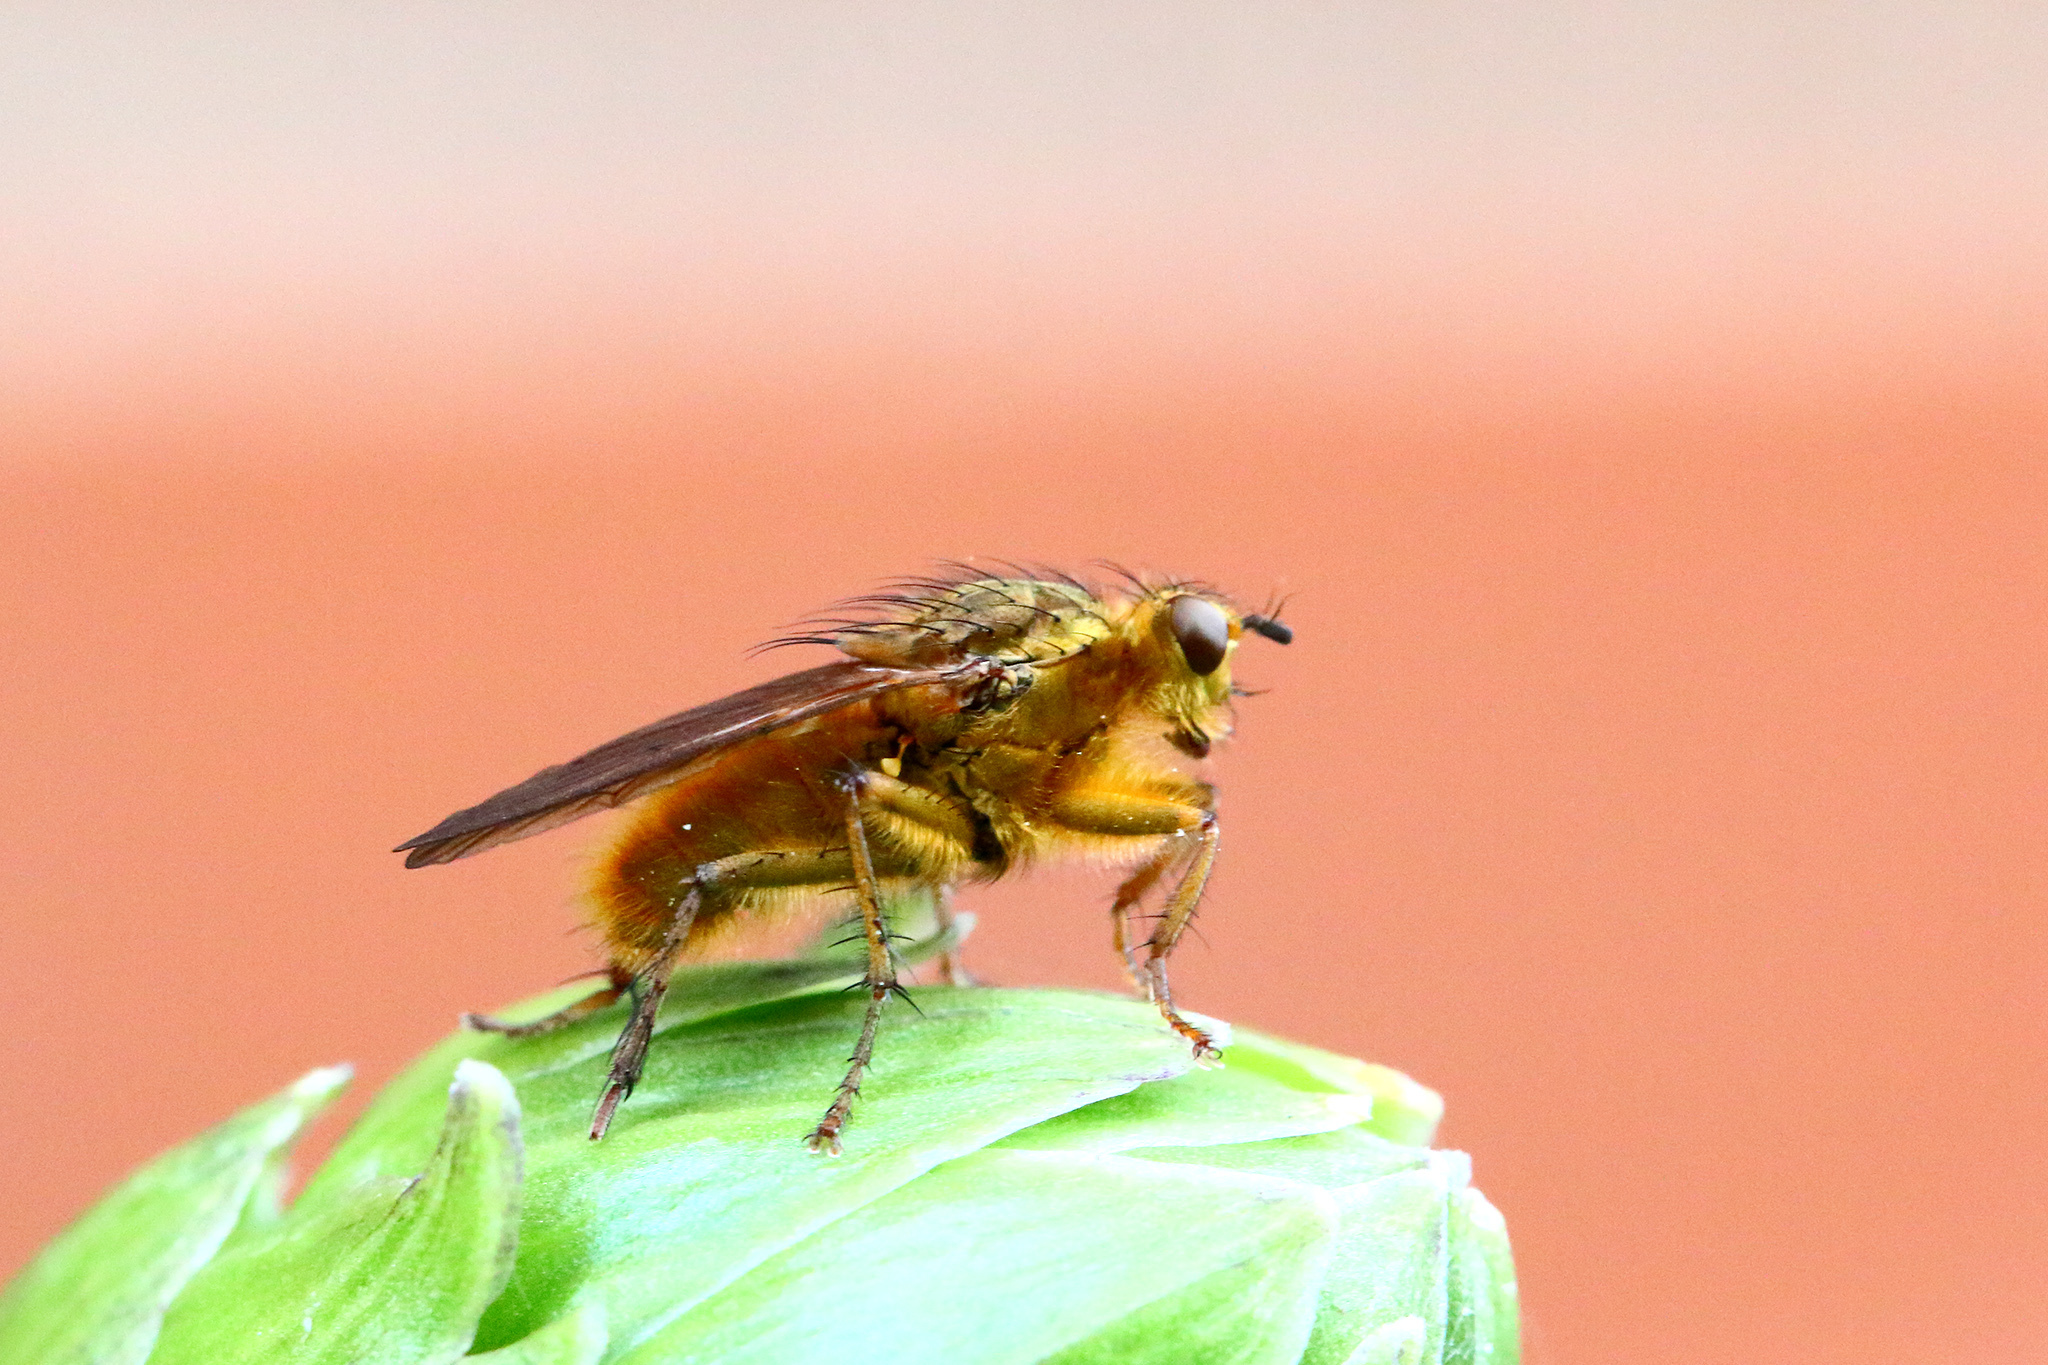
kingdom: Animalia
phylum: Arthropoda
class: Insecta
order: Diptera
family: Scathophagidae
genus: Scathophaga
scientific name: Scathophaga stercoraria
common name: Yellow dung fly
